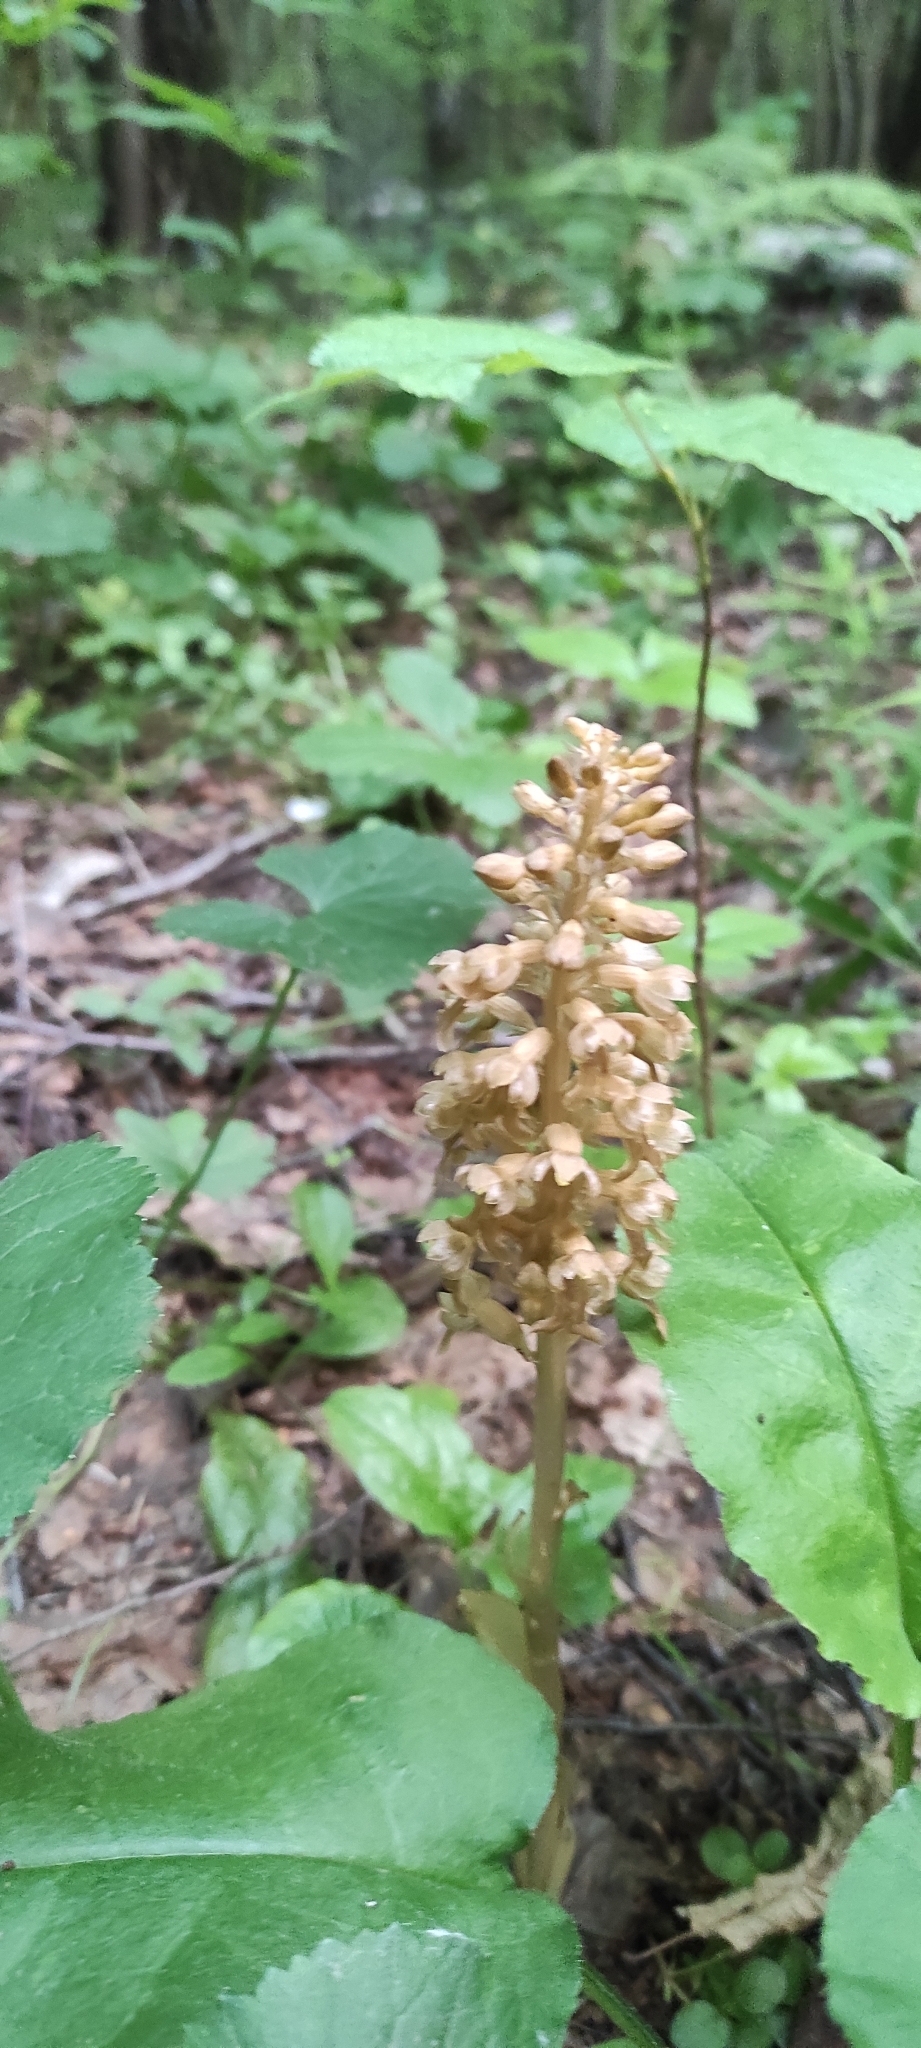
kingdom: Plantae
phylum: Tracheophyta
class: Liliopsida
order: Asparagales
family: Orchidaceae
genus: Neottia
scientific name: Neottia nidus-avis
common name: Bird's-nest orchid
